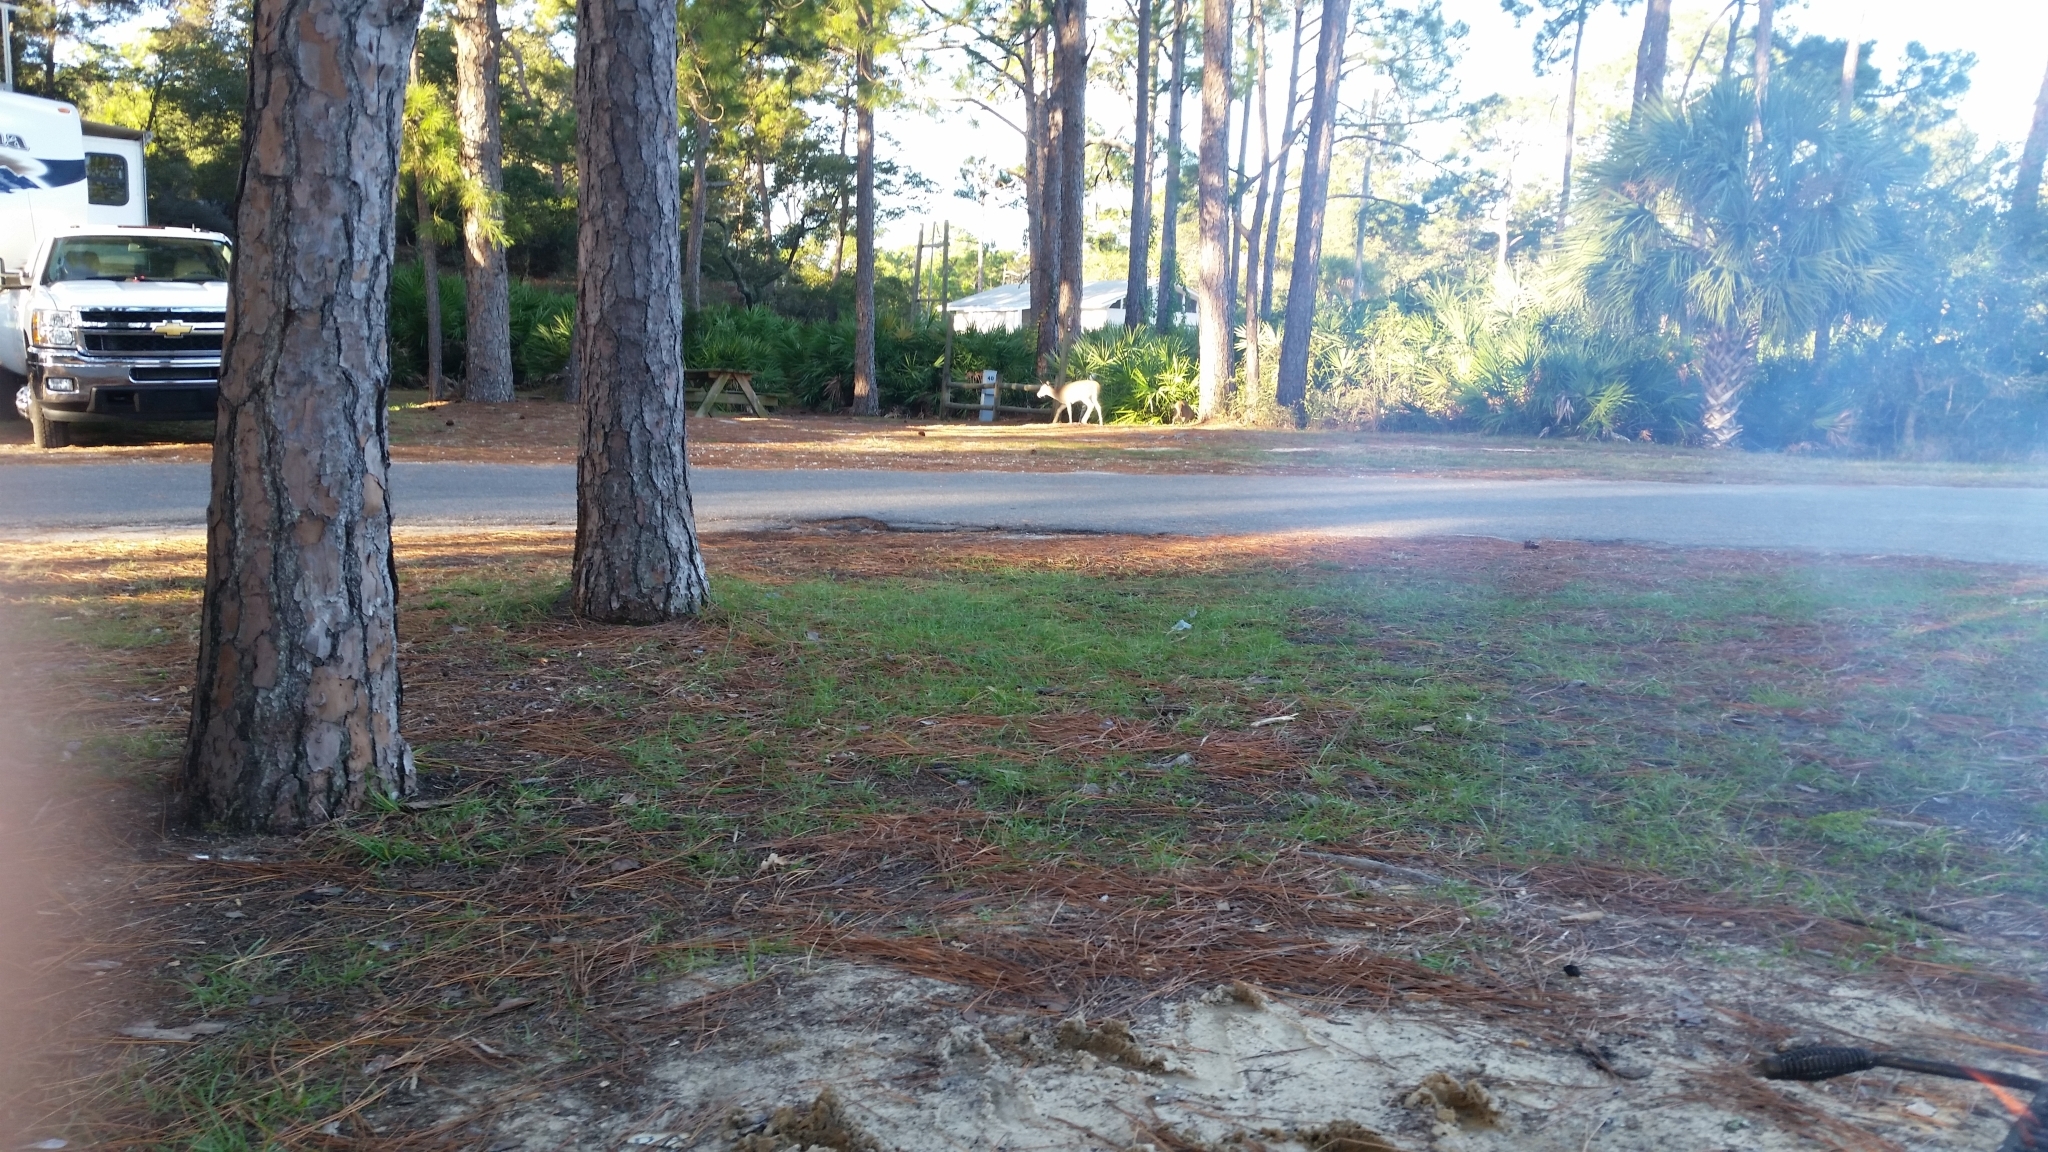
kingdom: Animalia
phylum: Chordata
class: Mammalia
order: Artiodactyla
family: Cervidae
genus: Odocoileus
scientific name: Odocoileus virginianus
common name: White-tailed deer
